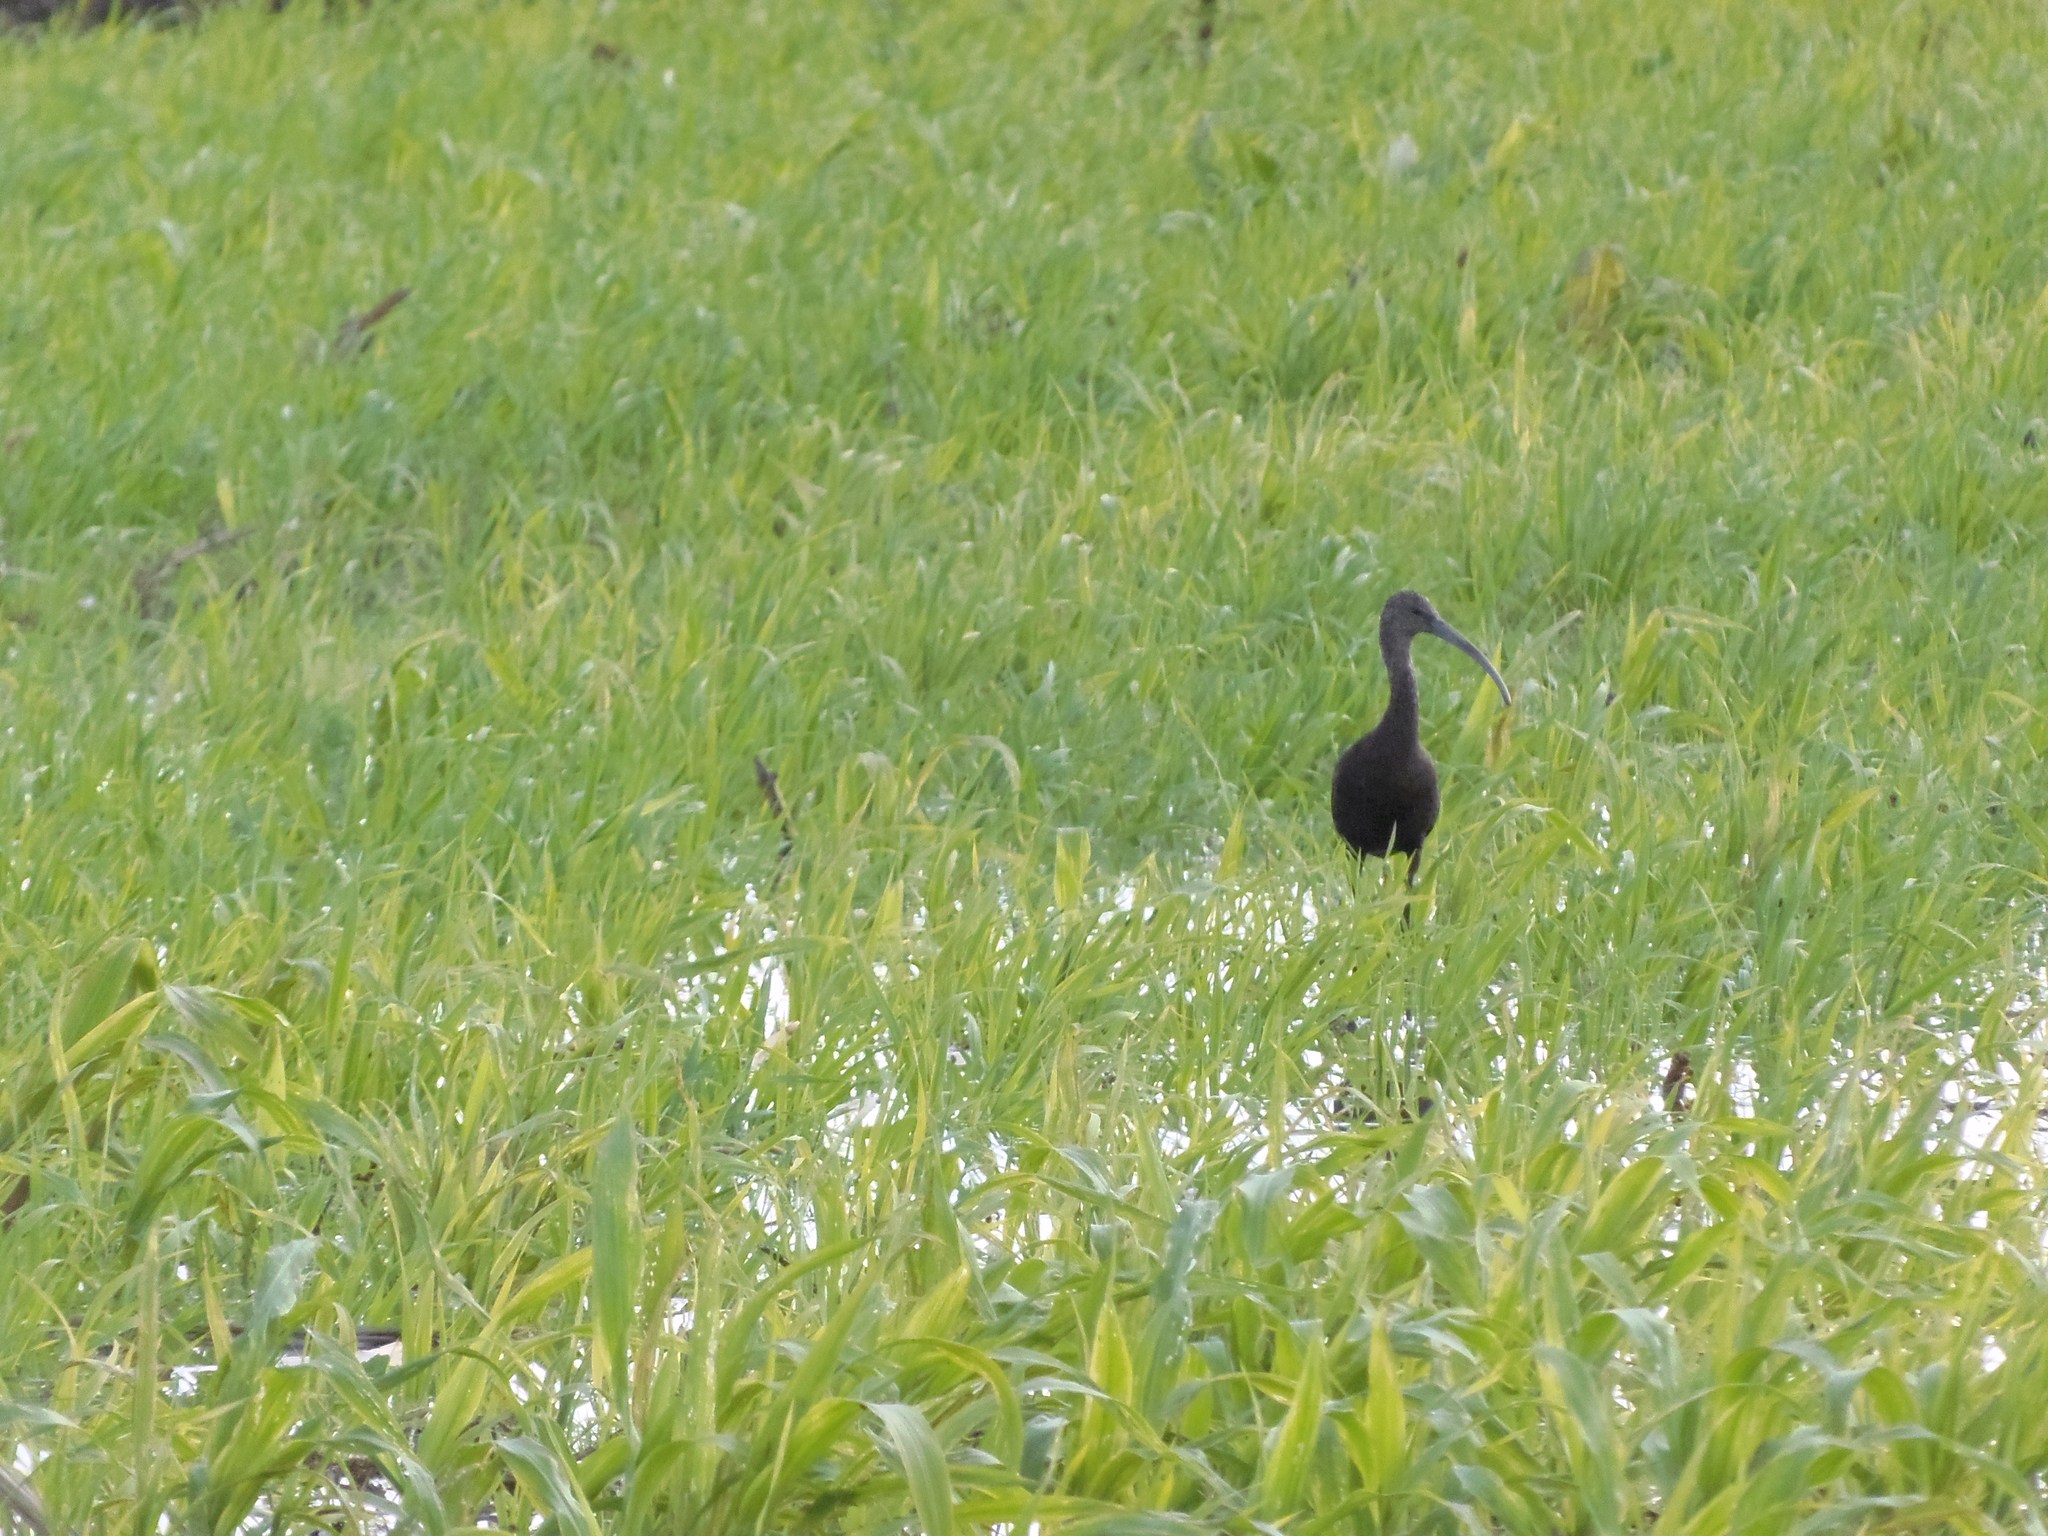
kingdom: Animalia
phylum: Chordata
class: Aves
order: Pelecaniformes
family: Threskiornithidae
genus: Plegadis
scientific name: Plegadis chihi
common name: White-faced ibis
